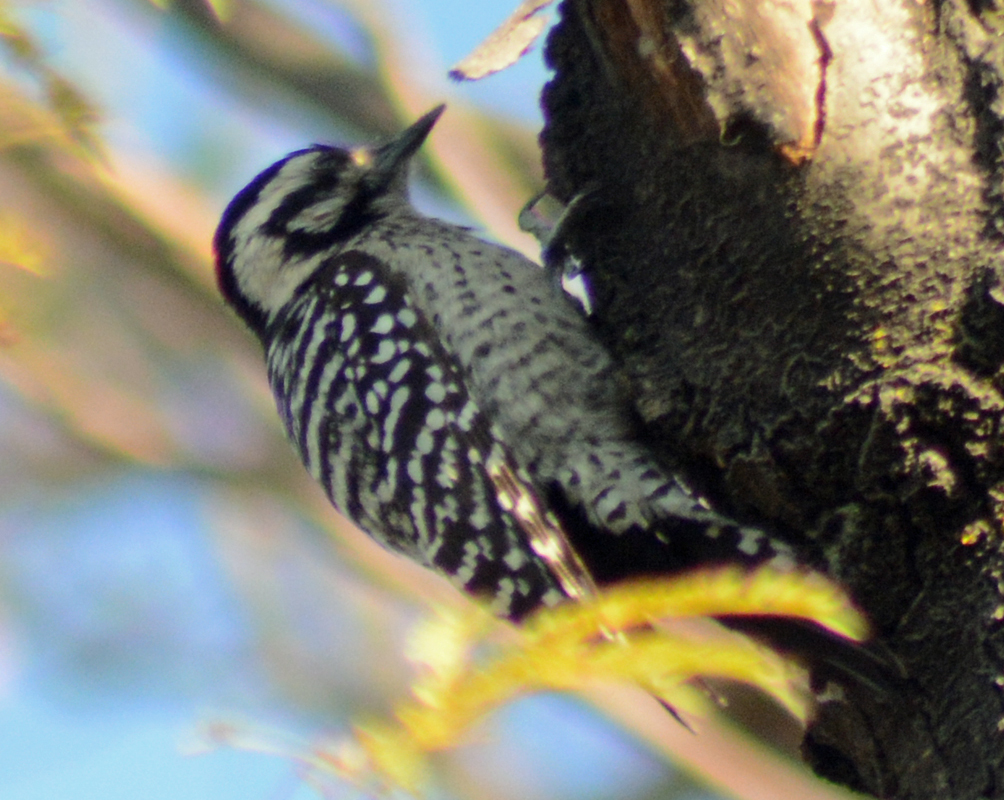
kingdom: Animalia
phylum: Chordata
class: Aves
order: Piciformes
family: Picidae
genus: Dryobates
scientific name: Dryobates scalaris
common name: Ladder-backed woodpecker
